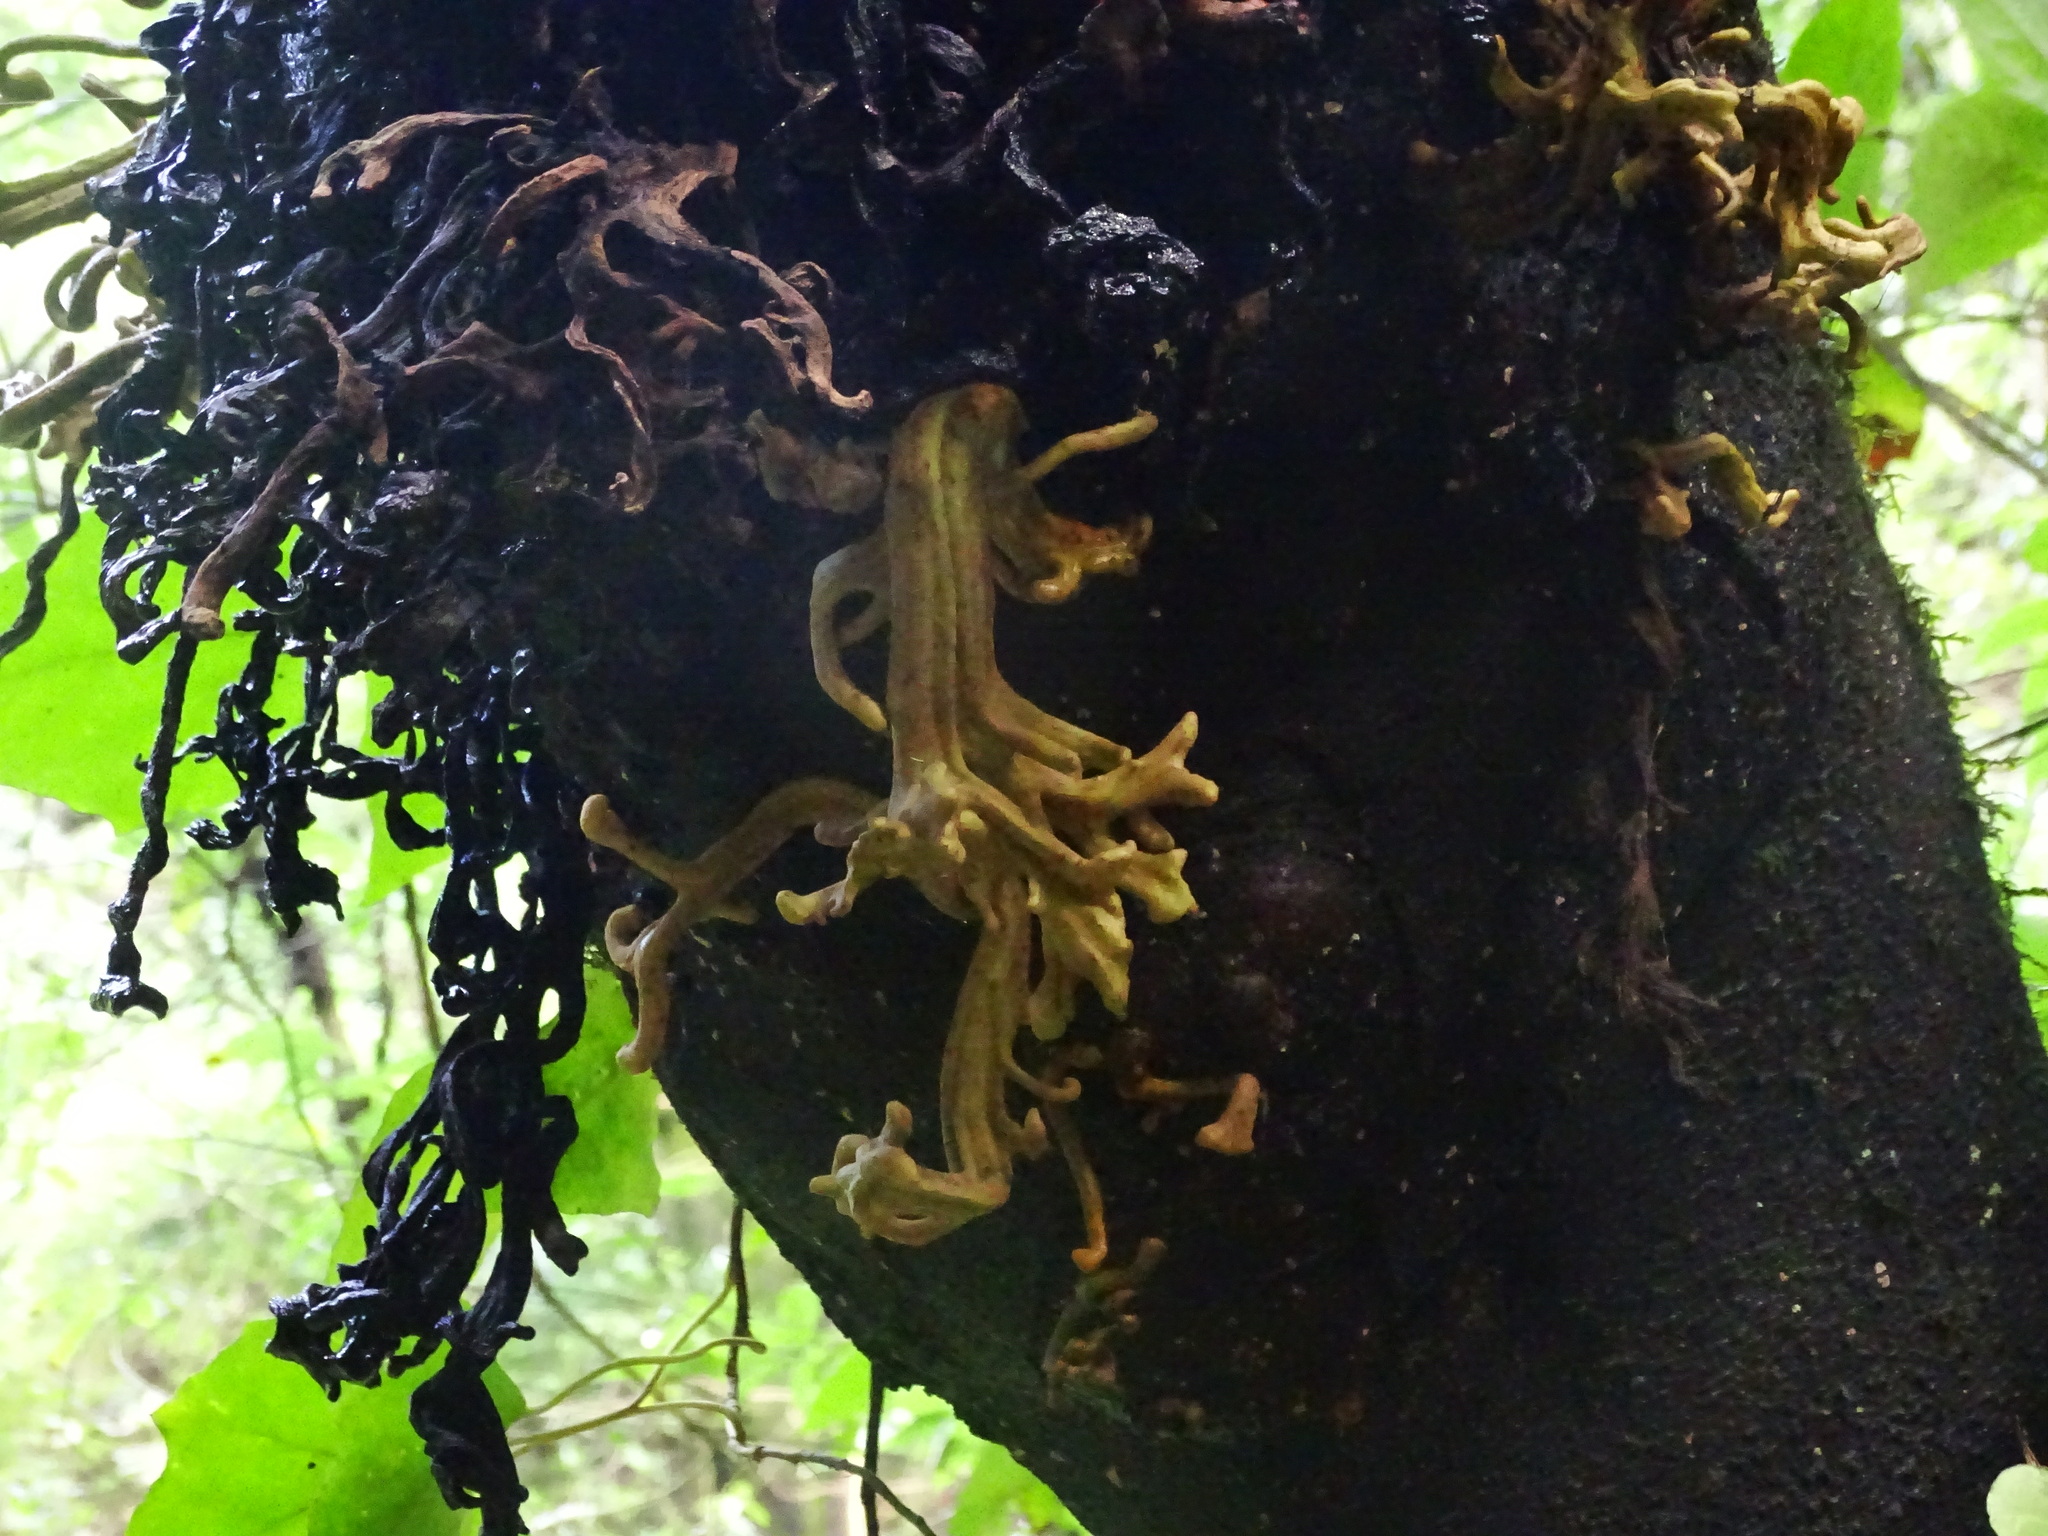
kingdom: Fungi
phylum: Basidiomycota
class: Exobasidiomycetes
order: Exobasidiales
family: Laurobasidiaceae
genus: Laurobasidium
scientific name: Laurobasidium lauri
